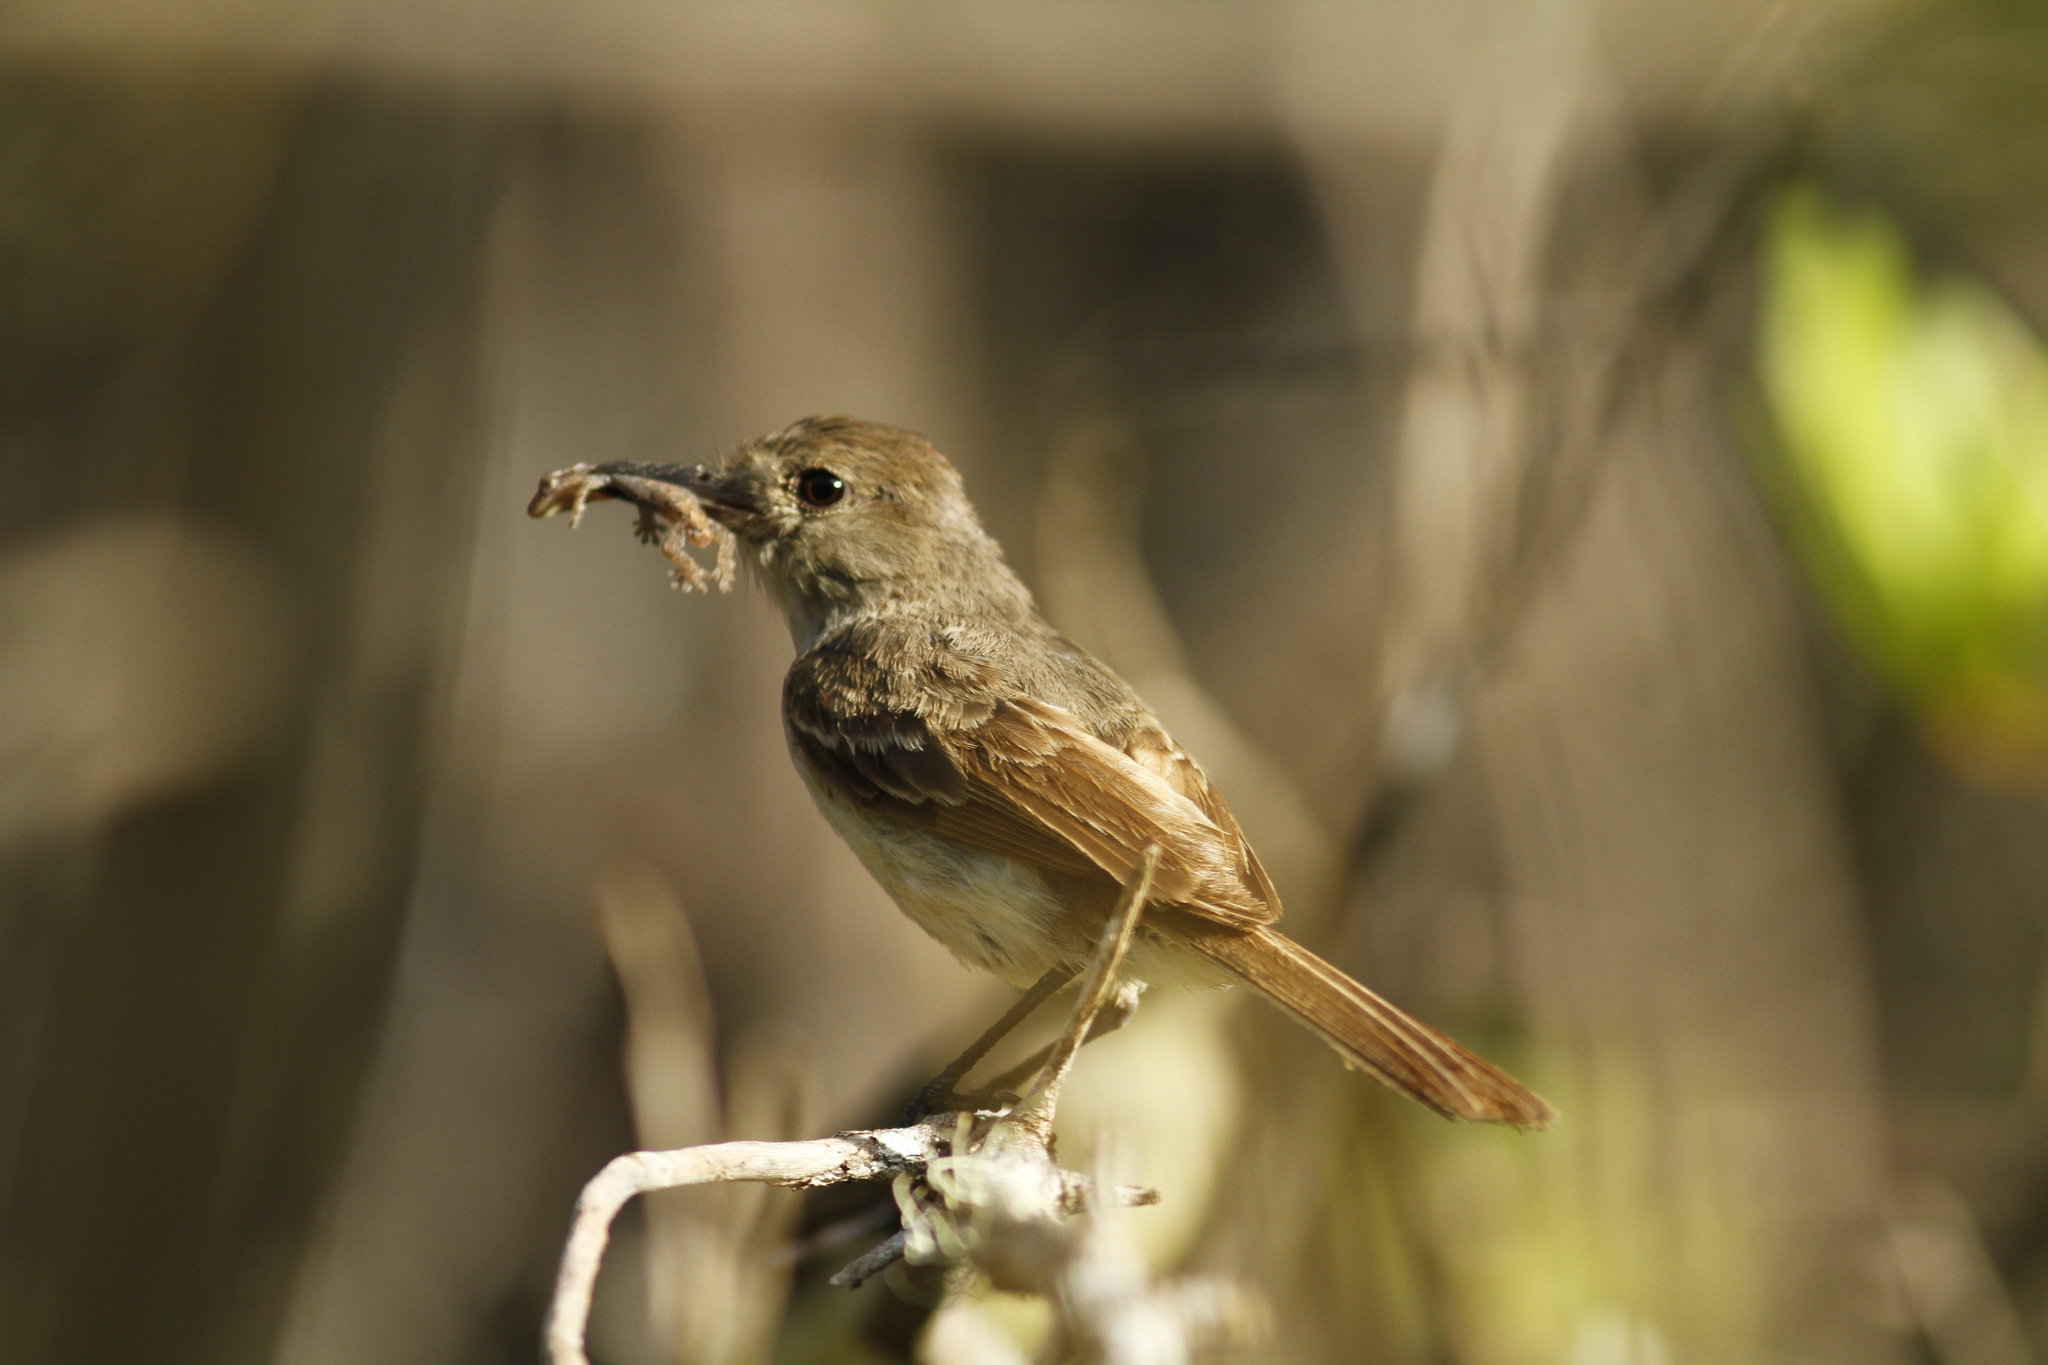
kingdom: Animalia
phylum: Chordata
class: Aves
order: Passeriformes
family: Tyrannidae
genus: Myiarchus
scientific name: Myiarchus magnirostris
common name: Galapagos flycatcher
